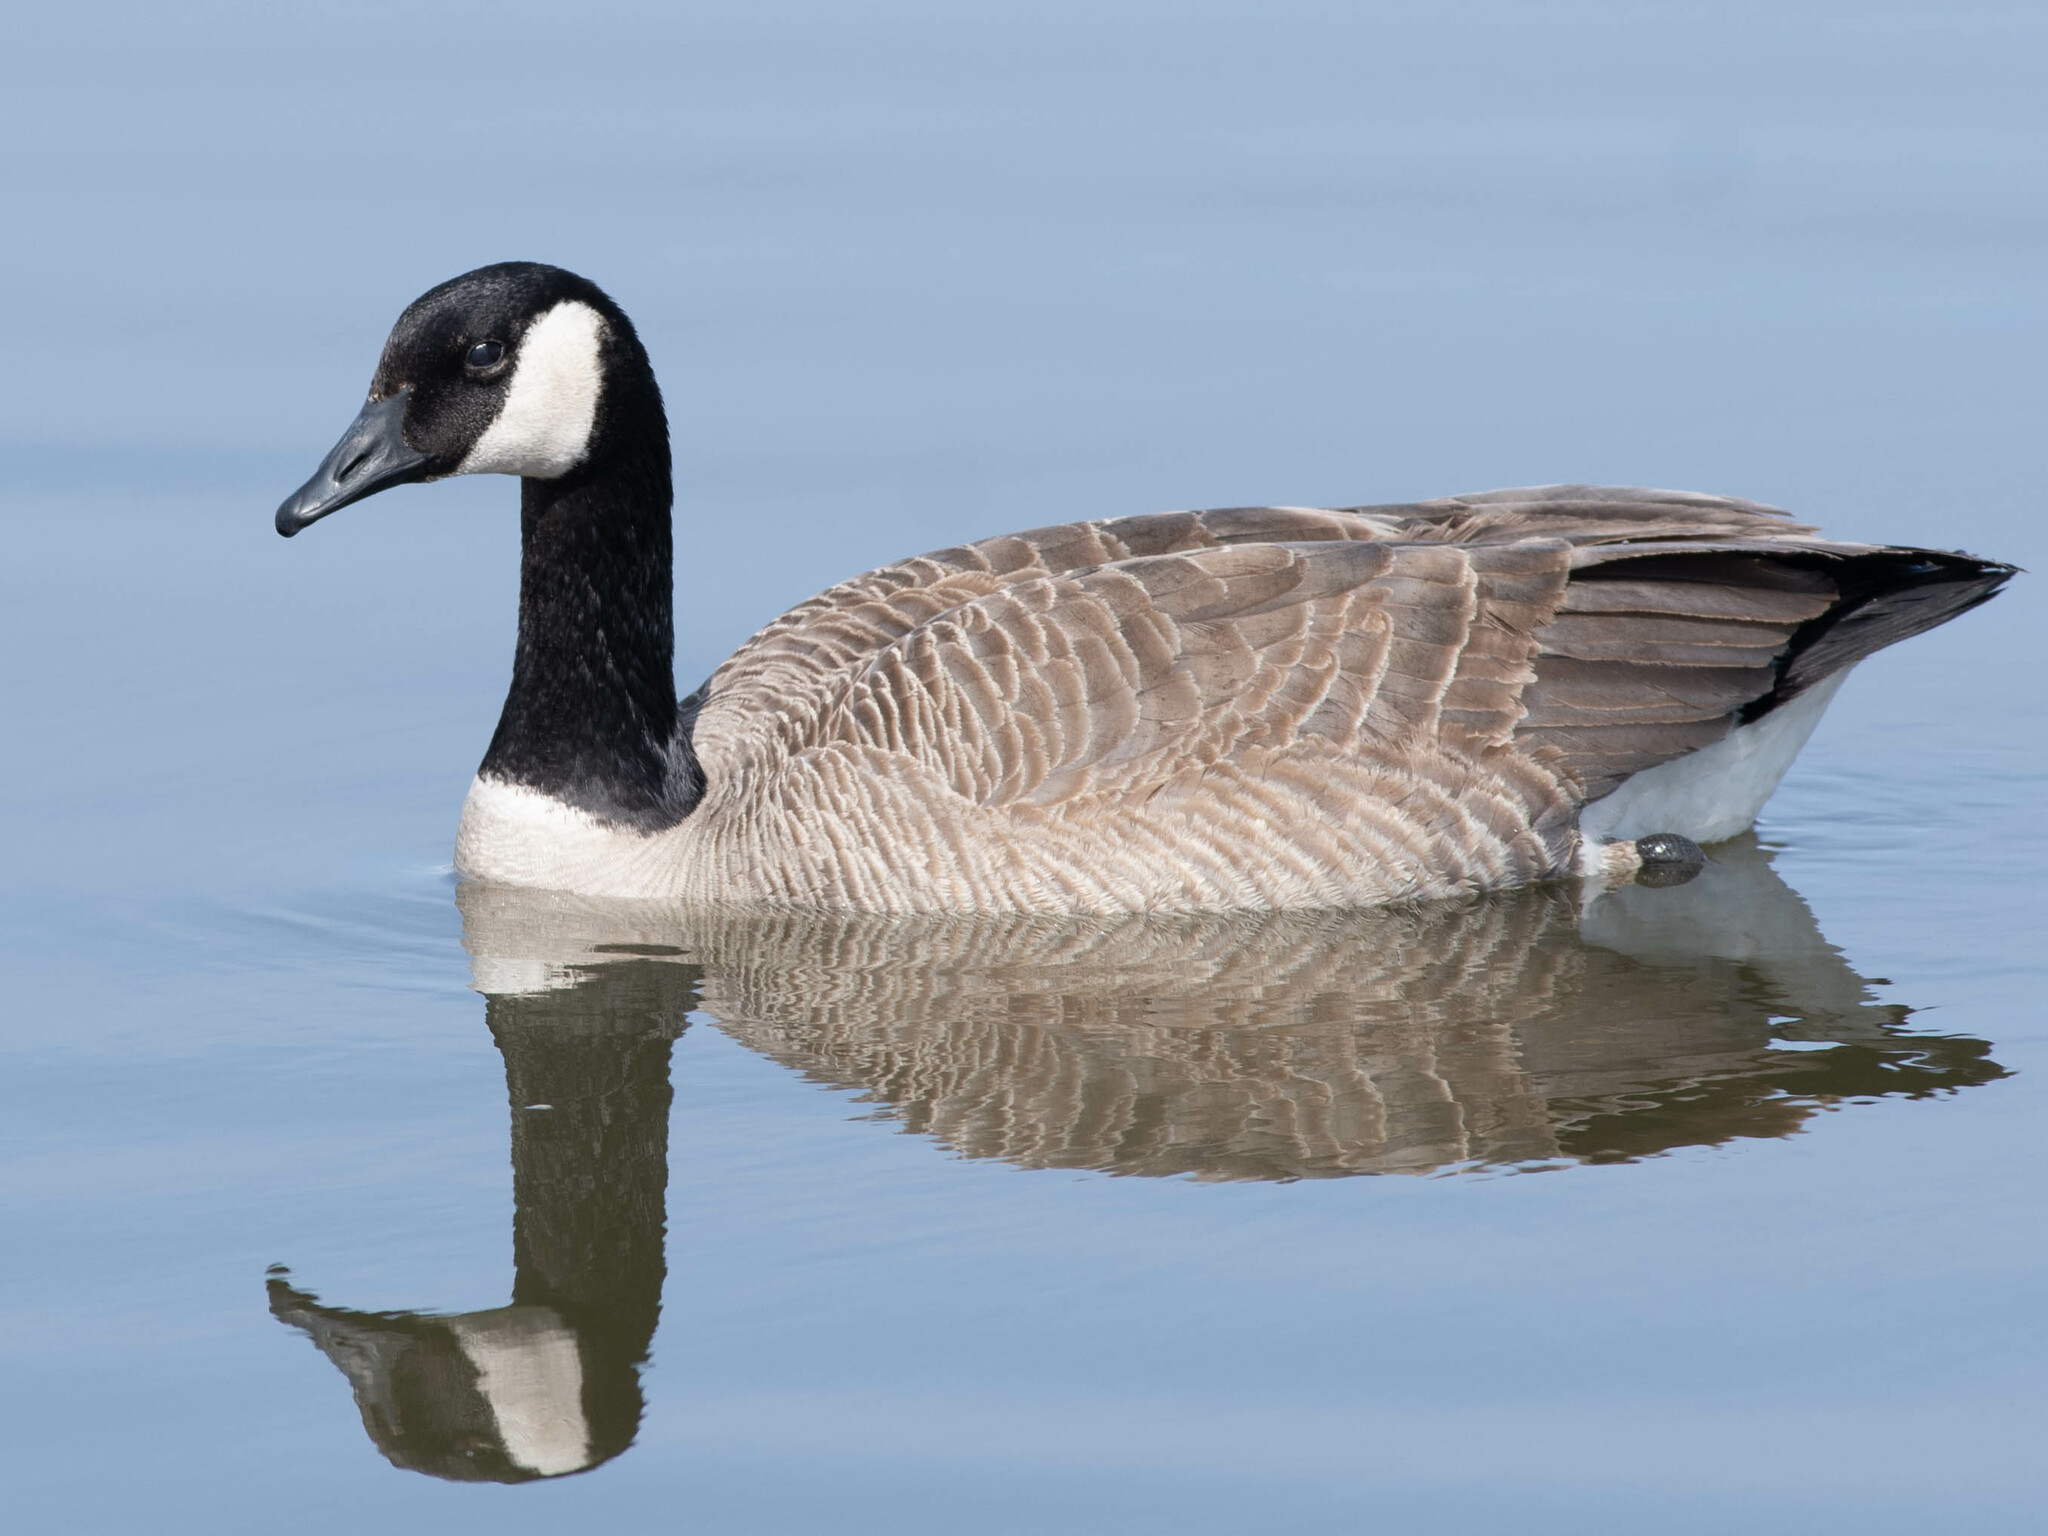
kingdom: Animalia
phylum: Chordata
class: Aves
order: Anseriformes
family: Anatidae
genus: Branta
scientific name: Branta canadensis
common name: Canada goose
